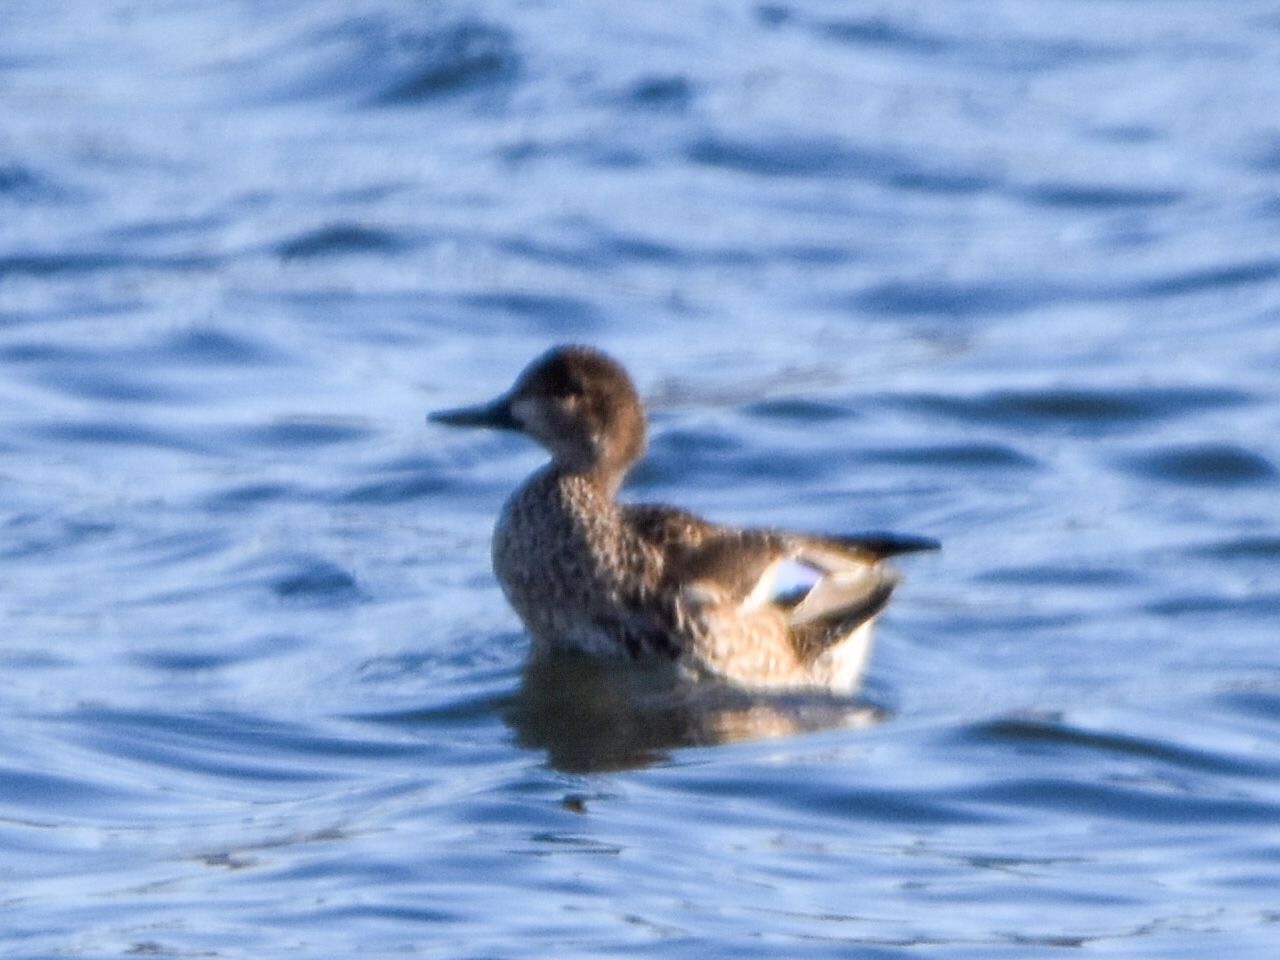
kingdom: Animalia
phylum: Chordata
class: Aves
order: Anseriformes
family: Anatidae
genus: Anas
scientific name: Anas crecca
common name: Eurasian teal
